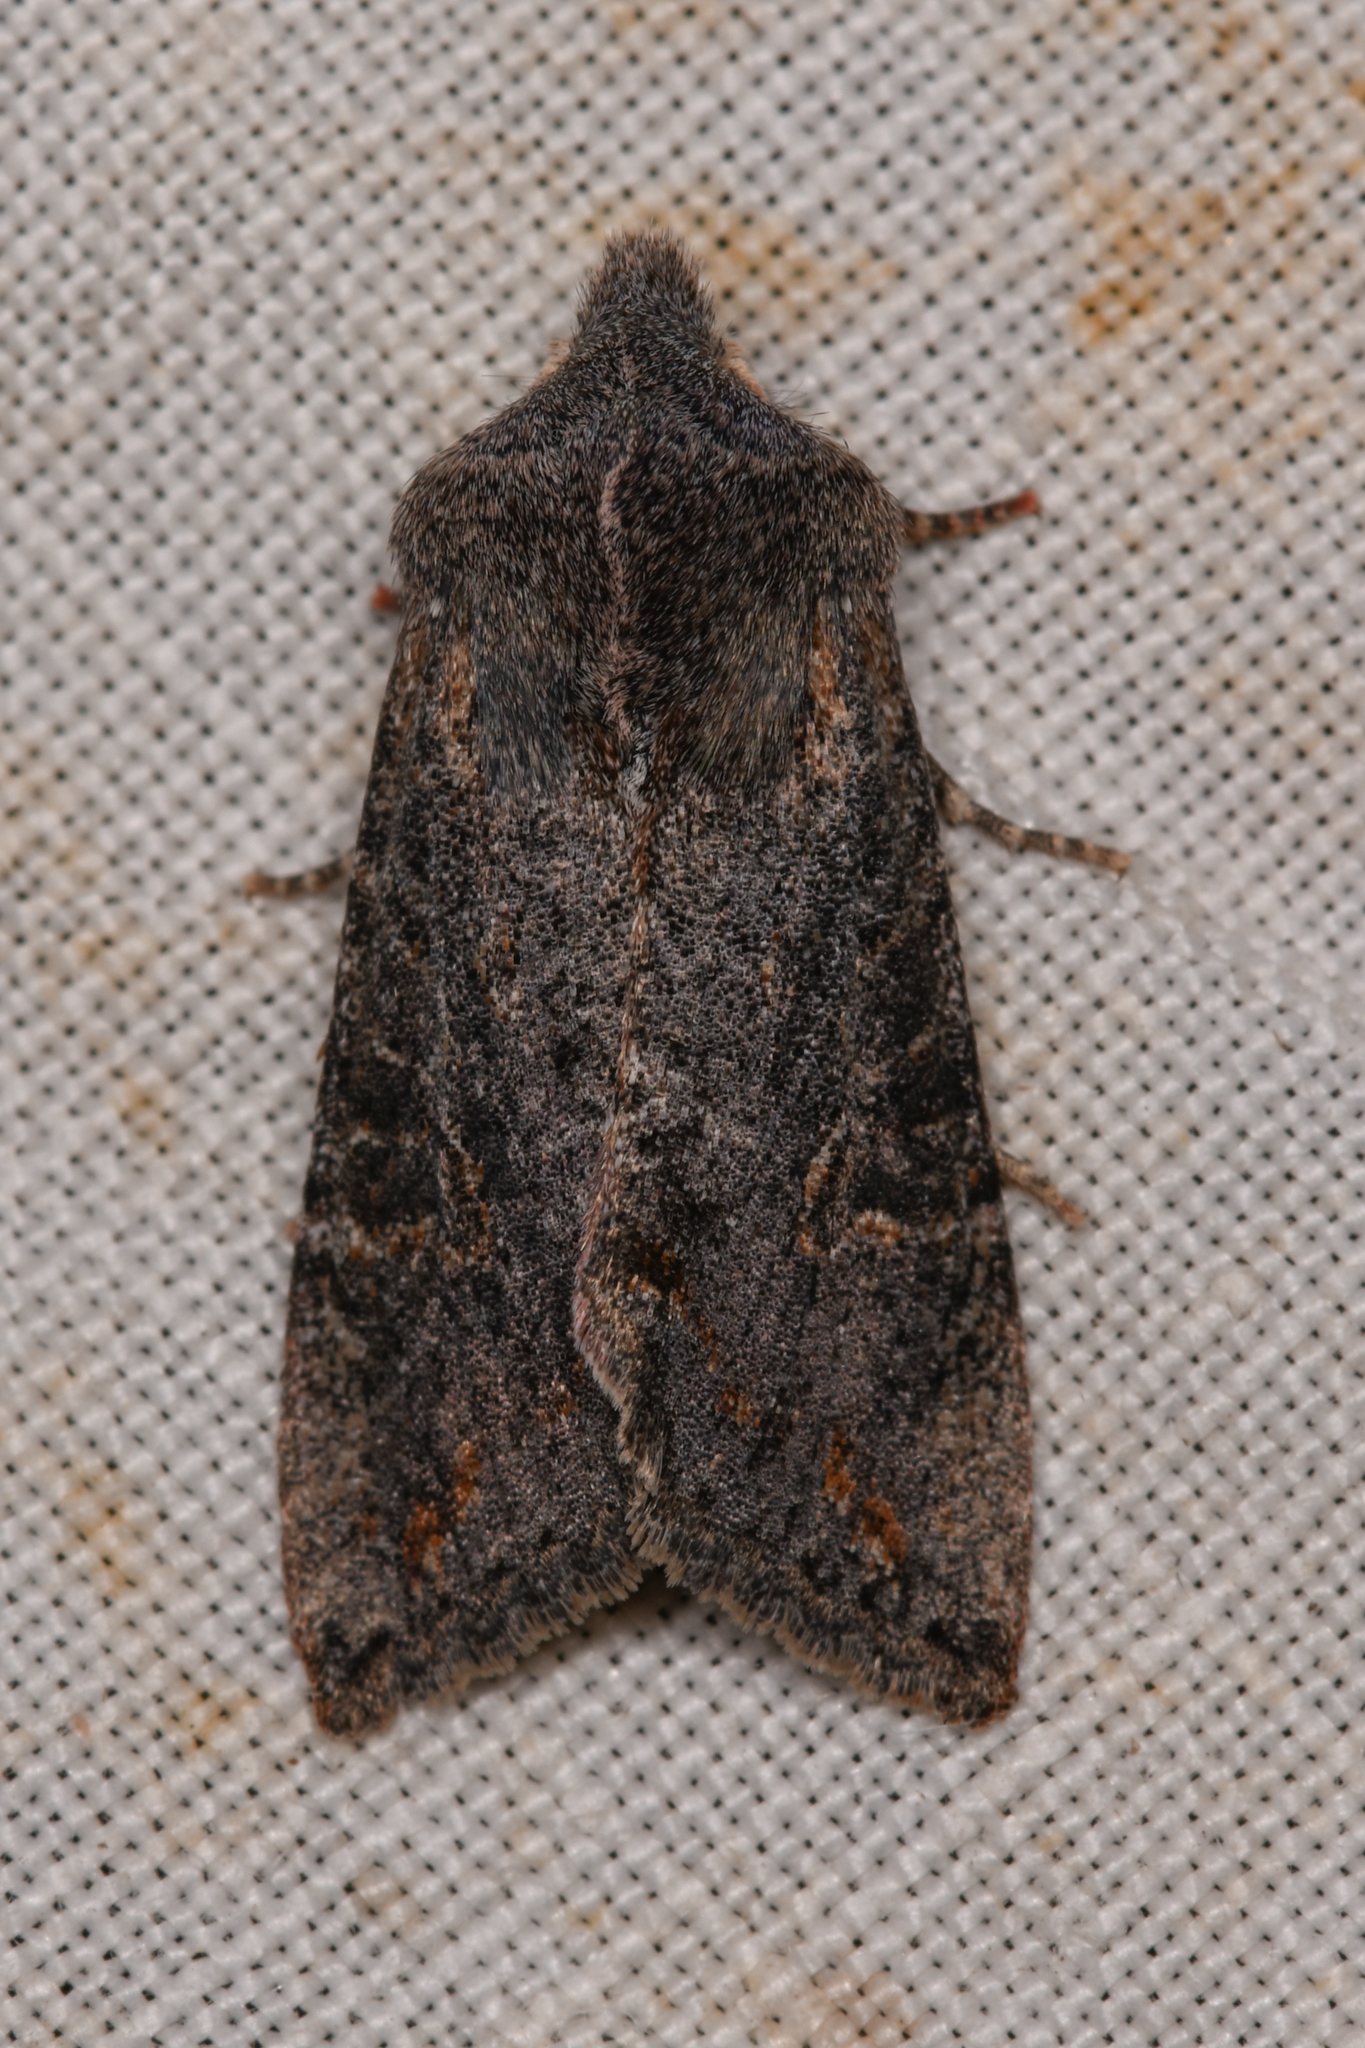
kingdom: Animalia
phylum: Arthropoda
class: Insecta
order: Lepidoptera
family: Noctuidae
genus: Orthosia
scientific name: Orthosia erythrolita
